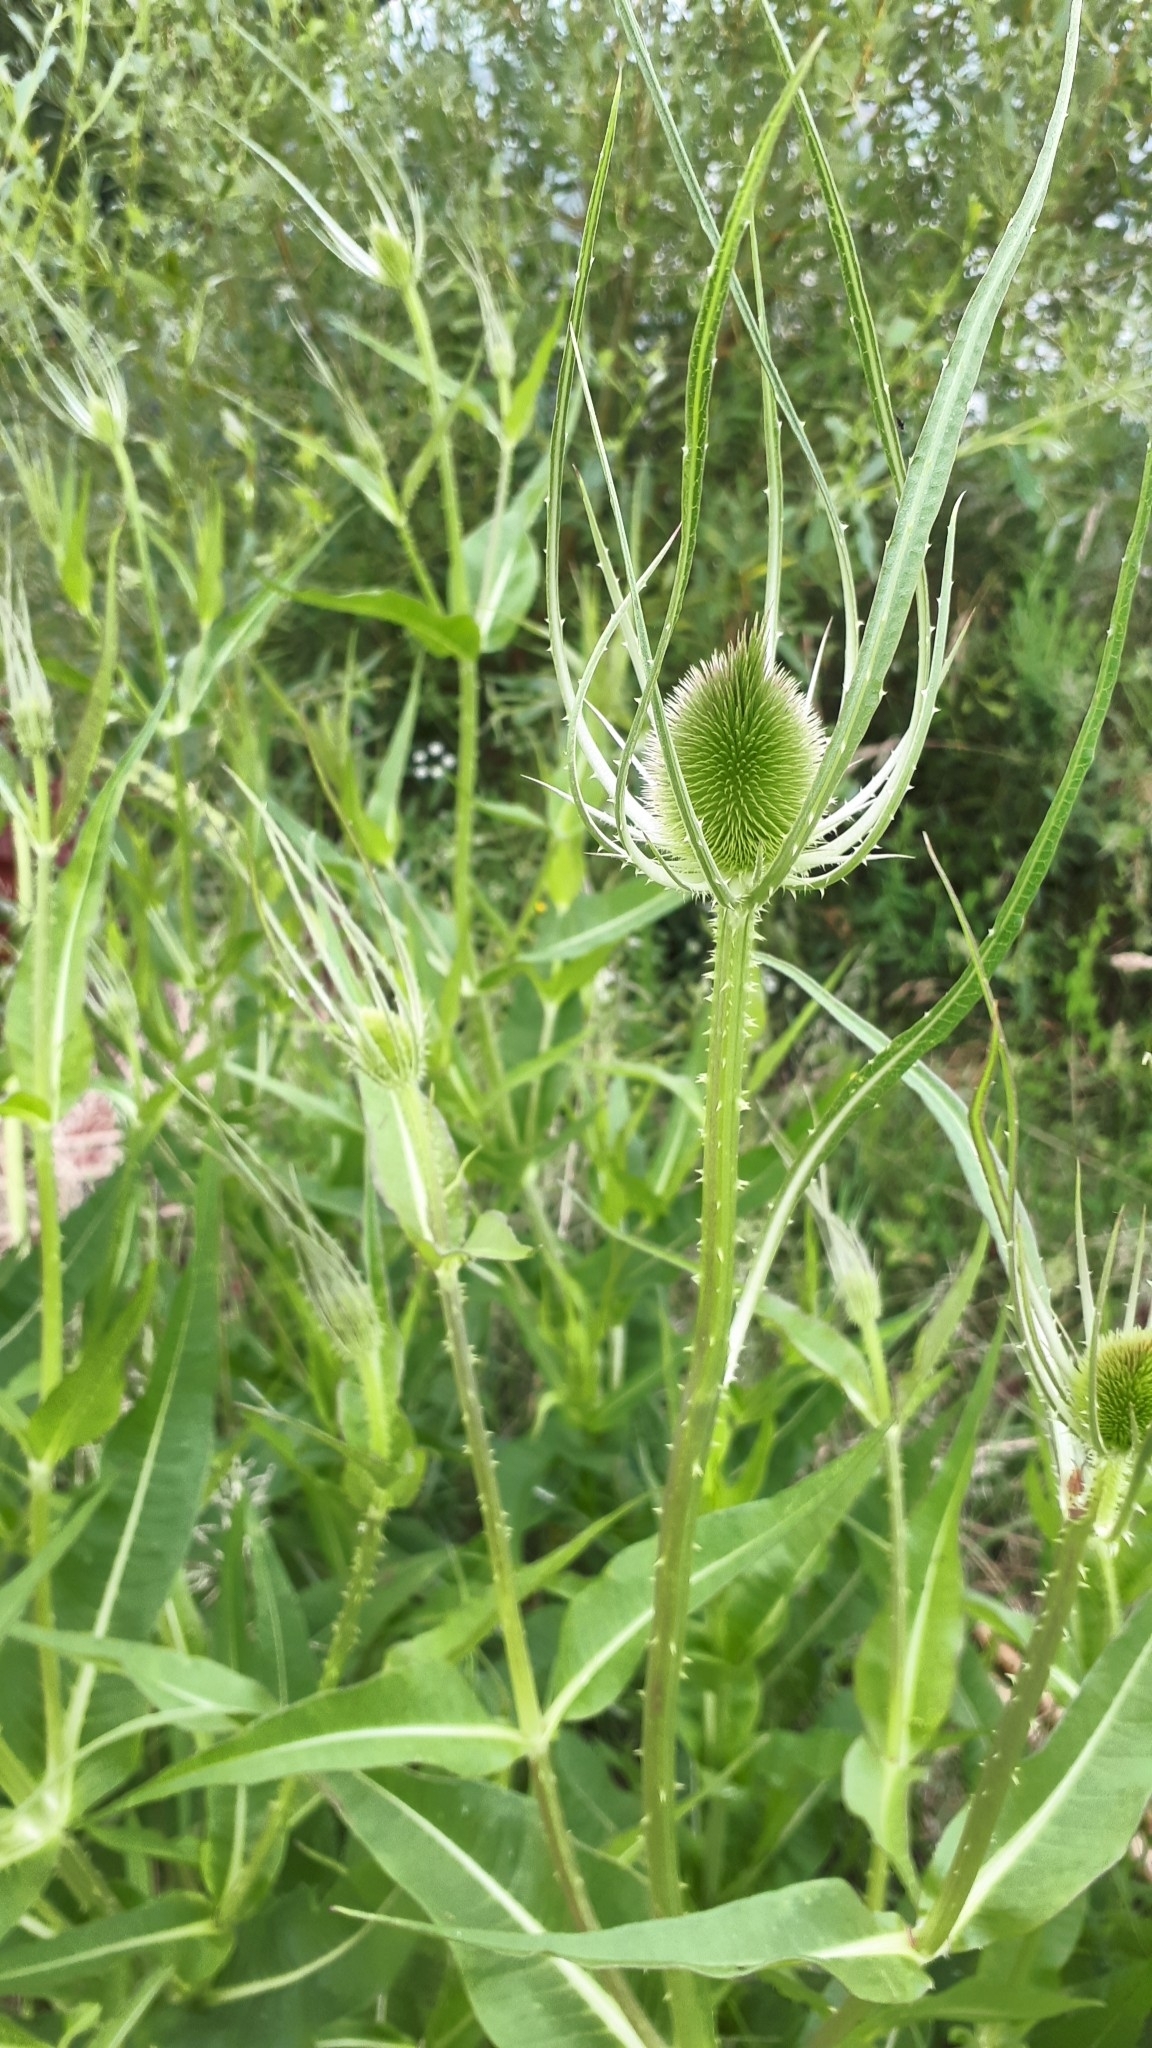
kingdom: Plantae
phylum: Tracheophyta
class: Magnoliopsida
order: Dipsacales
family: Caprifoliaceae
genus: Dipsacus
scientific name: Dipsacus fullonum
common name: Teasel
